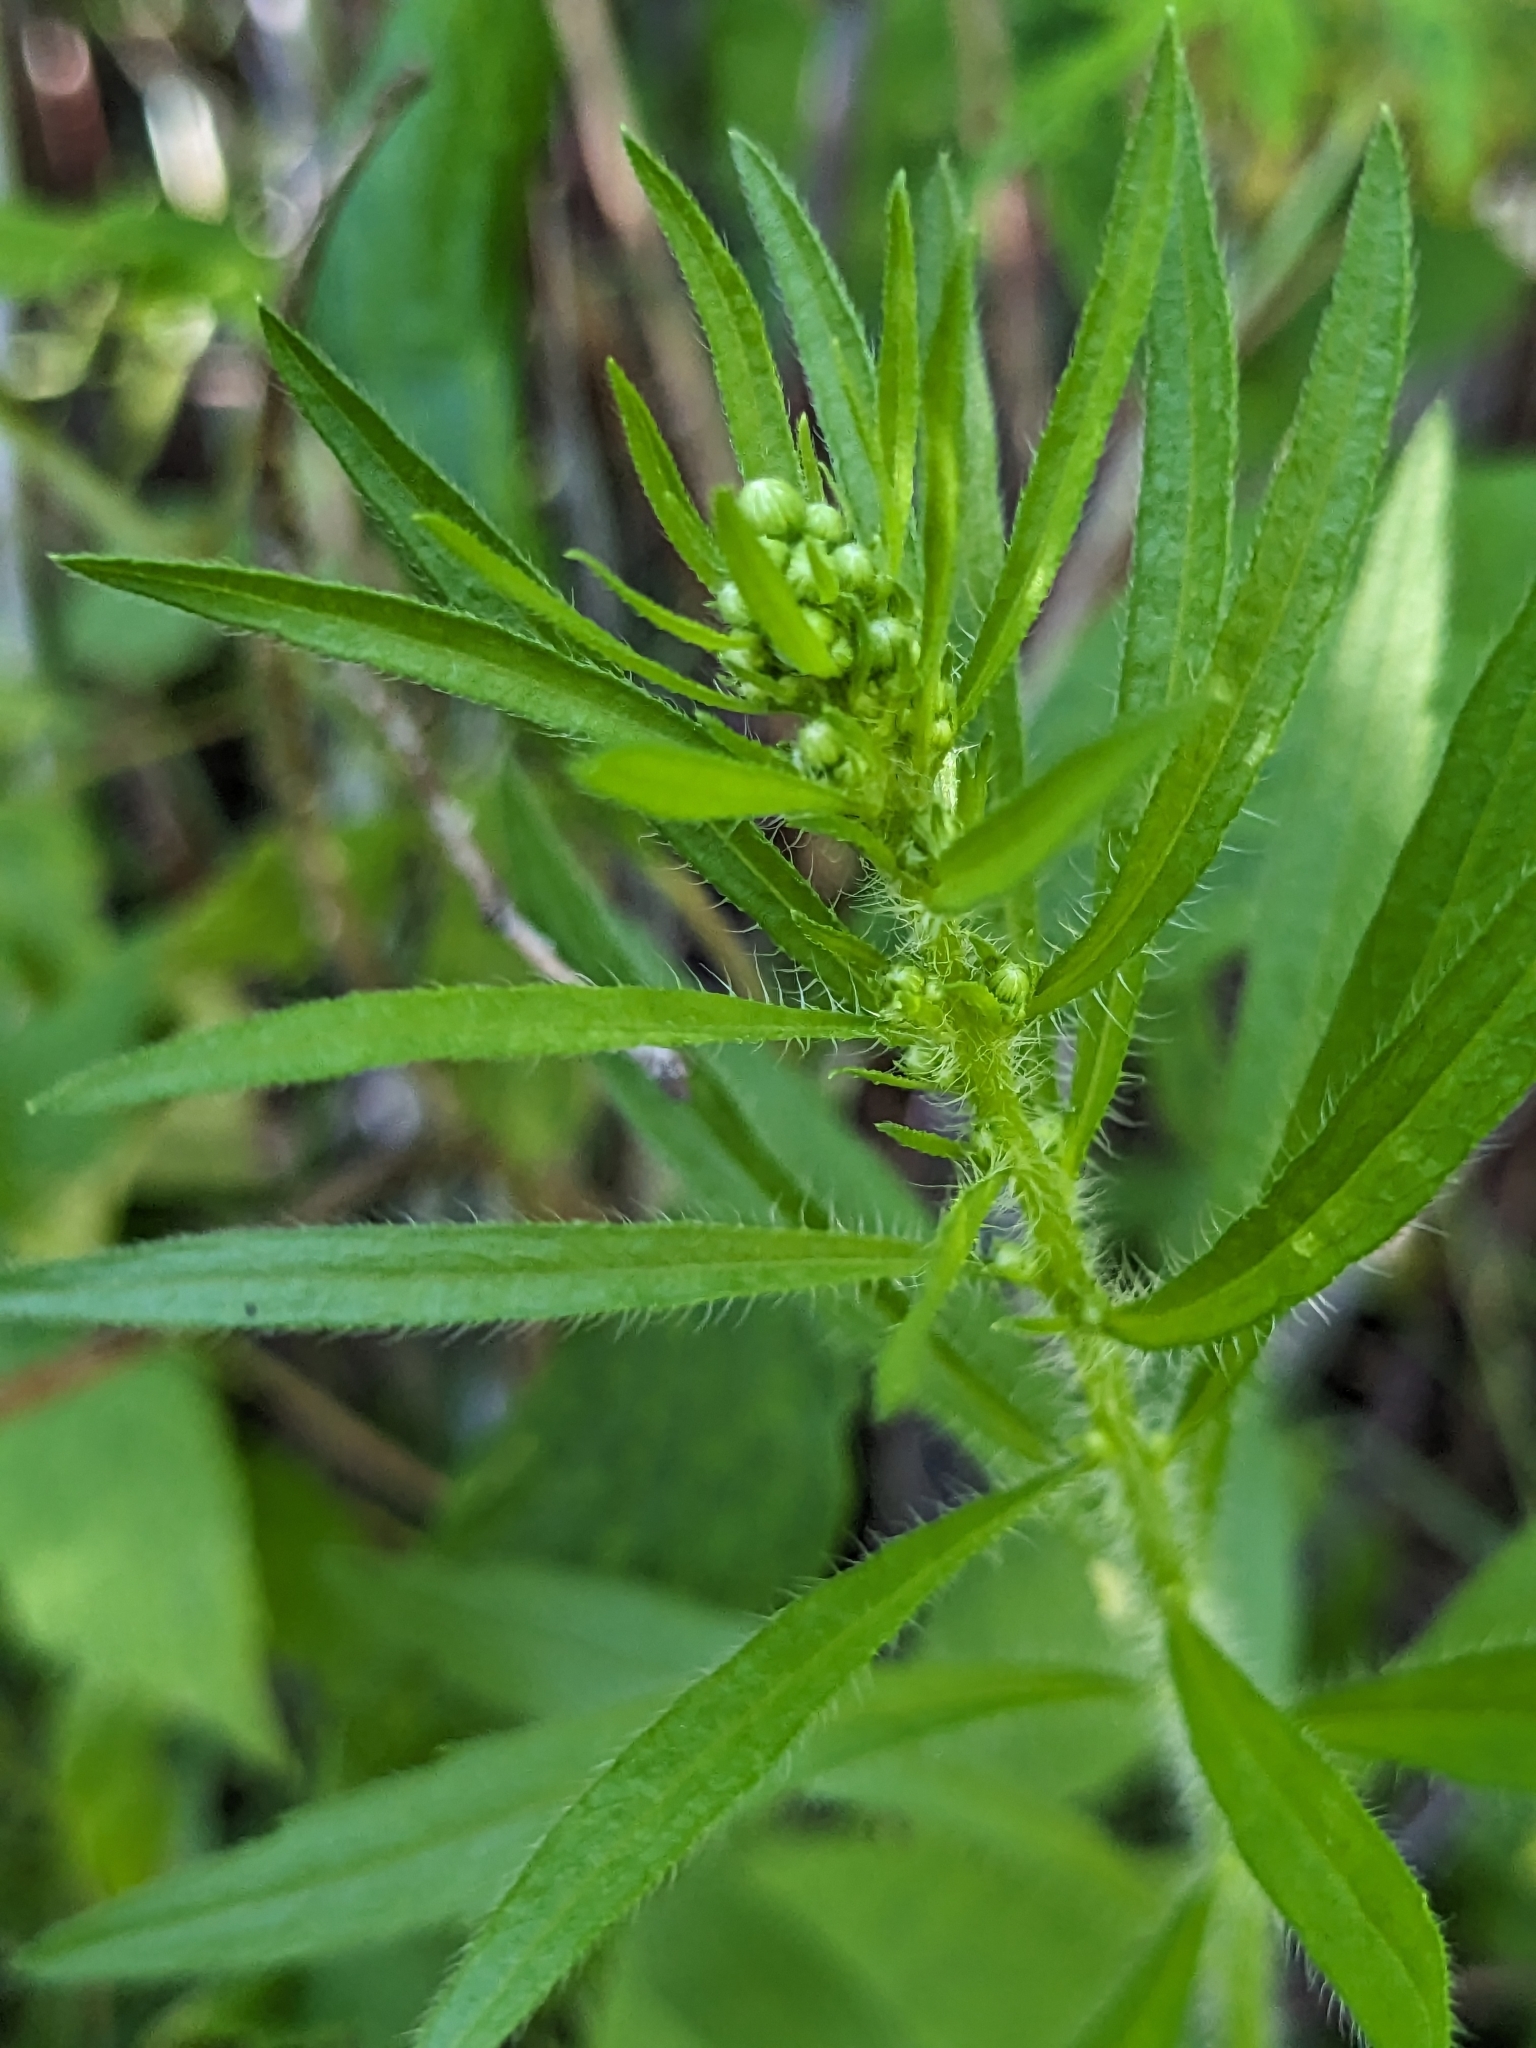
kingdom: Plantae
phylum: Tracheophyta
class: Magnoliopsida
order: Asterales
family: Asteraceae
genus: Erigeron
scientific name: Erigeron canadensis
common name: Canadian fleabane
